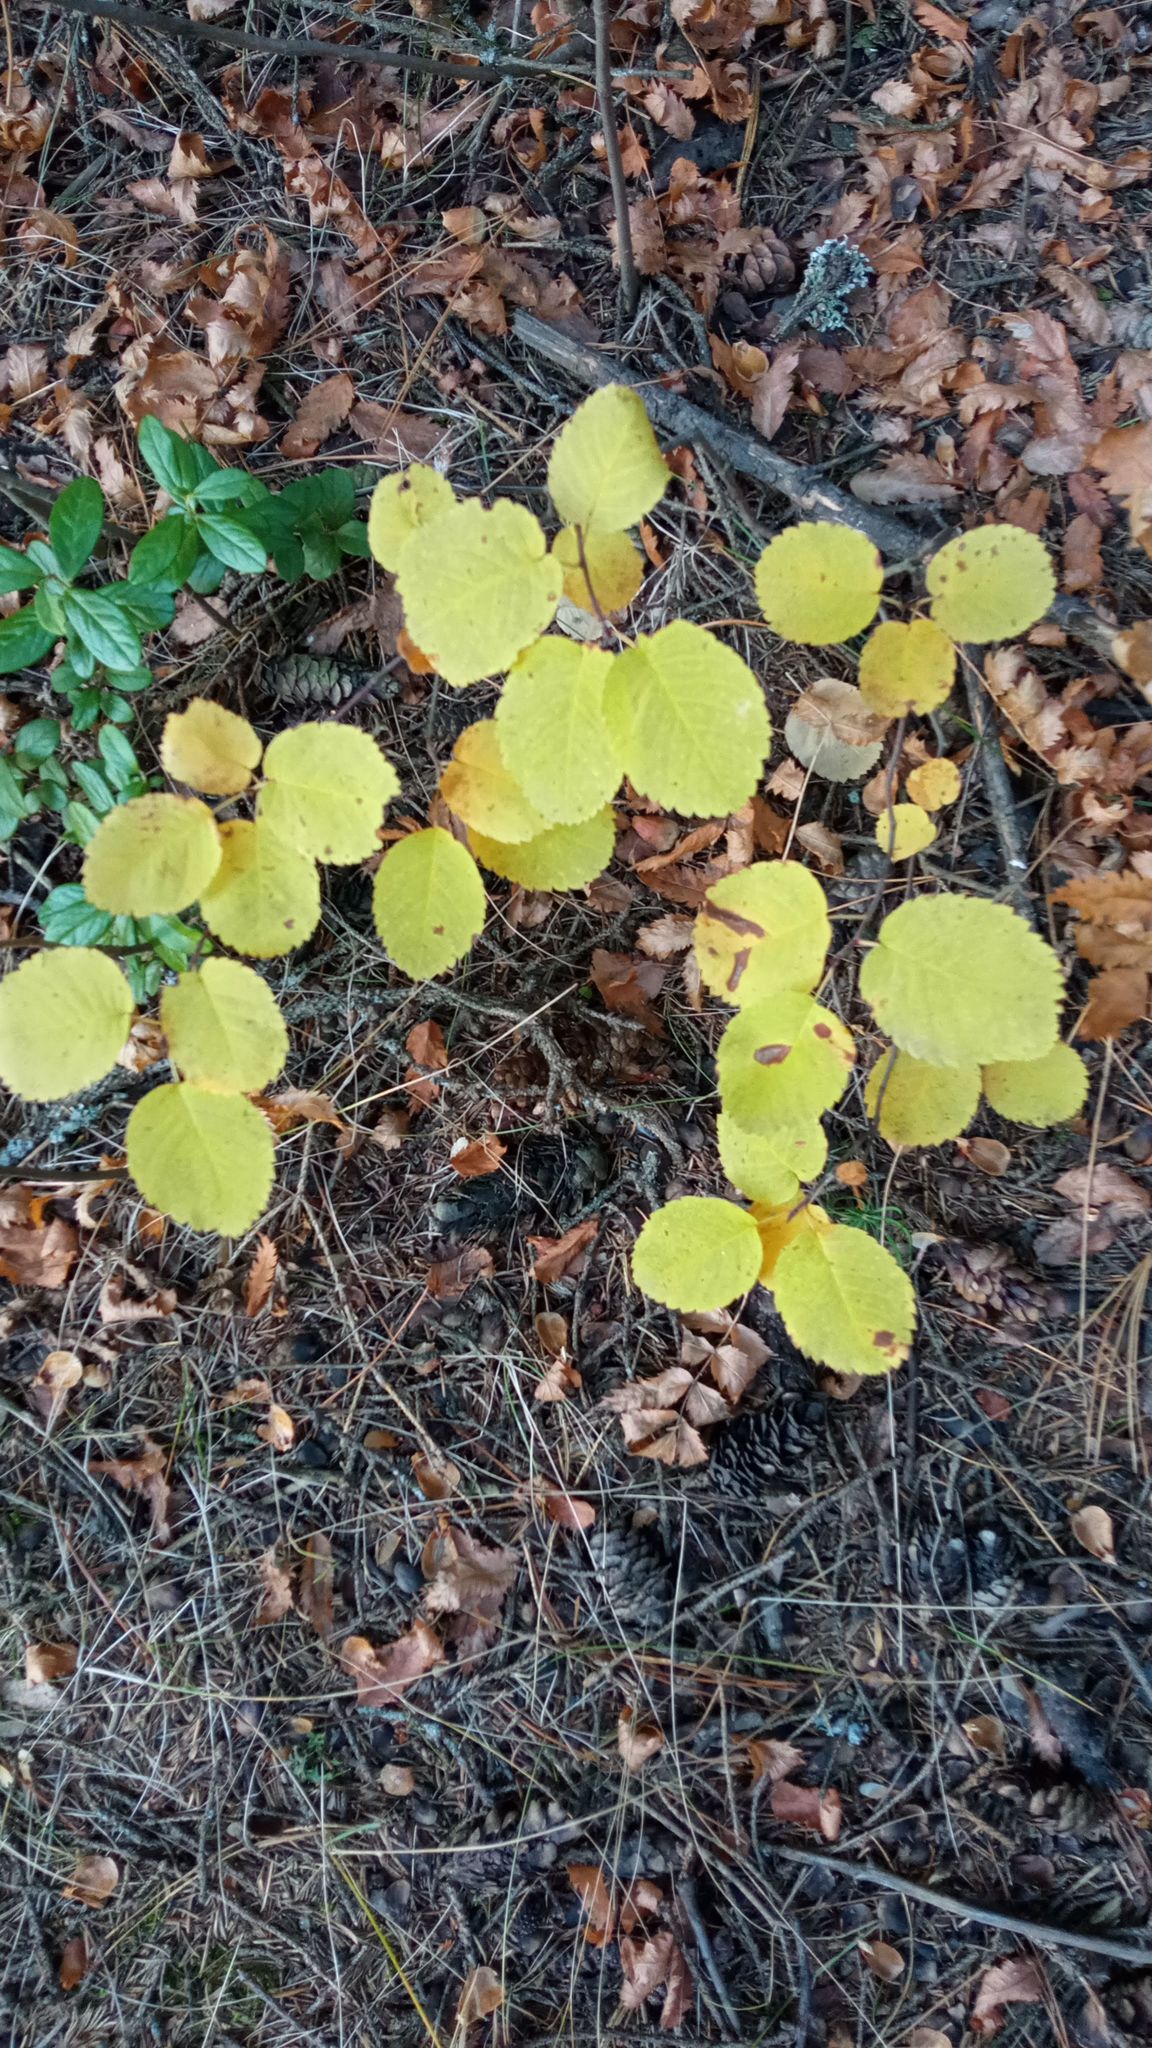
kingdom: Plantae
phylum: Tracheophyta
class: Magnoliopsida
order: Rosales
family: Rosaceae
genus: Amelanchier
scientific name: Amelanchier alnifolia
